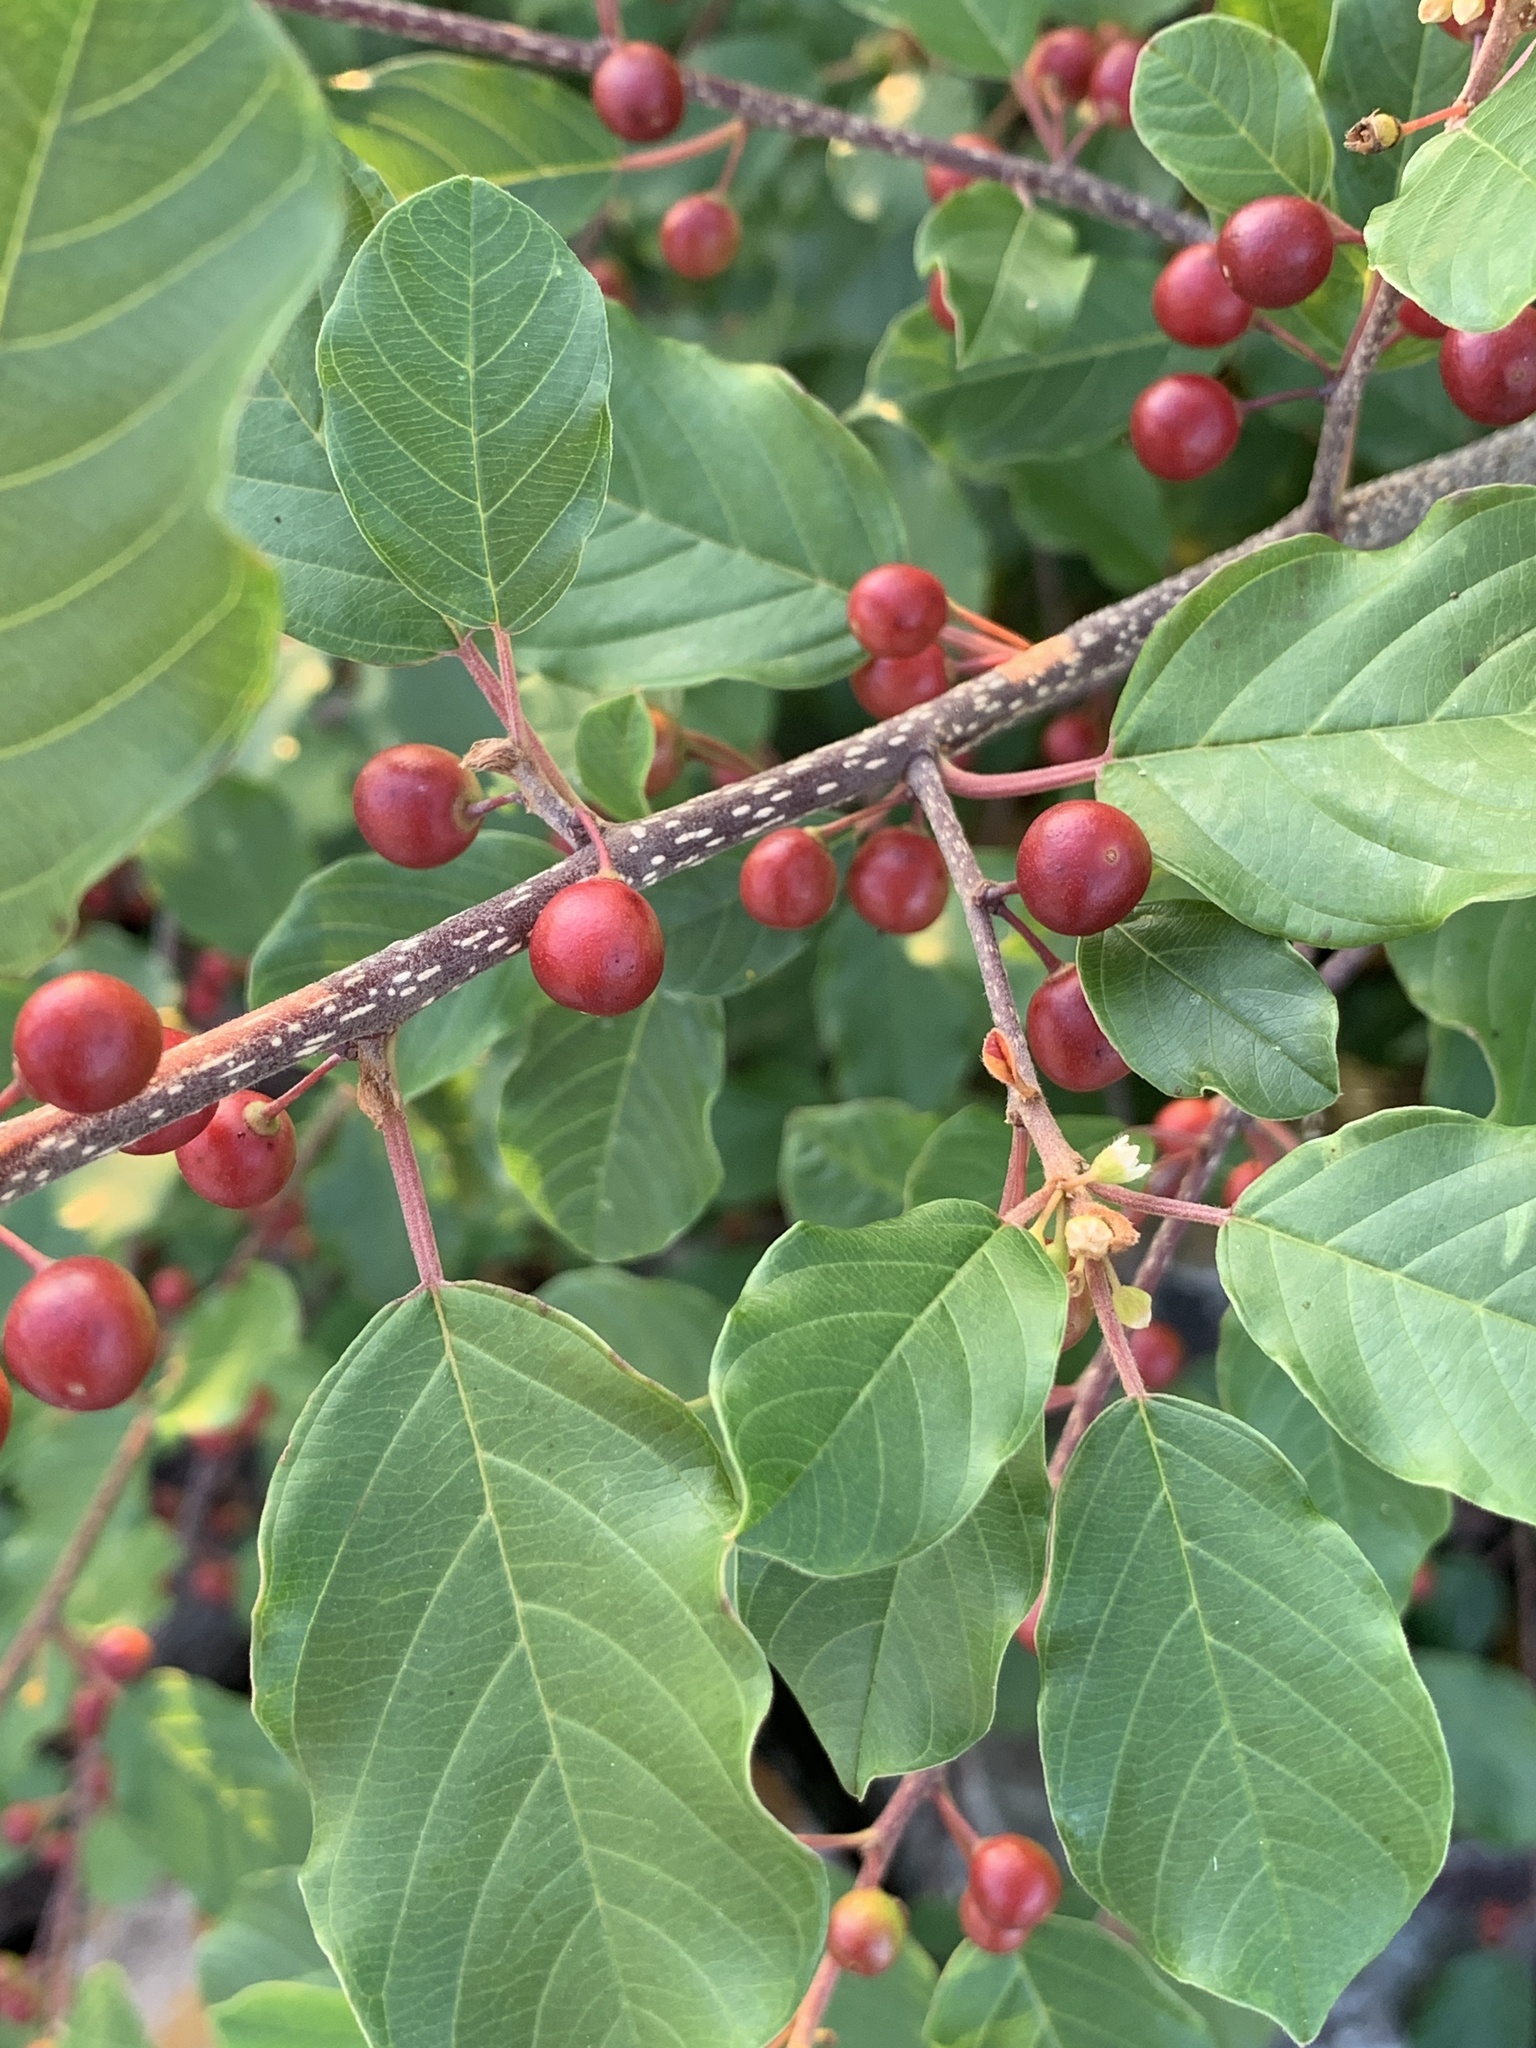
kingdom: Plantae
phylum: Tracheophyta
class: Magnoliopsida
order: Rosales
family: Rhamnaceae
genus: Frangula
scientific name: Frangula alnus
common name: Alder buckthorn
